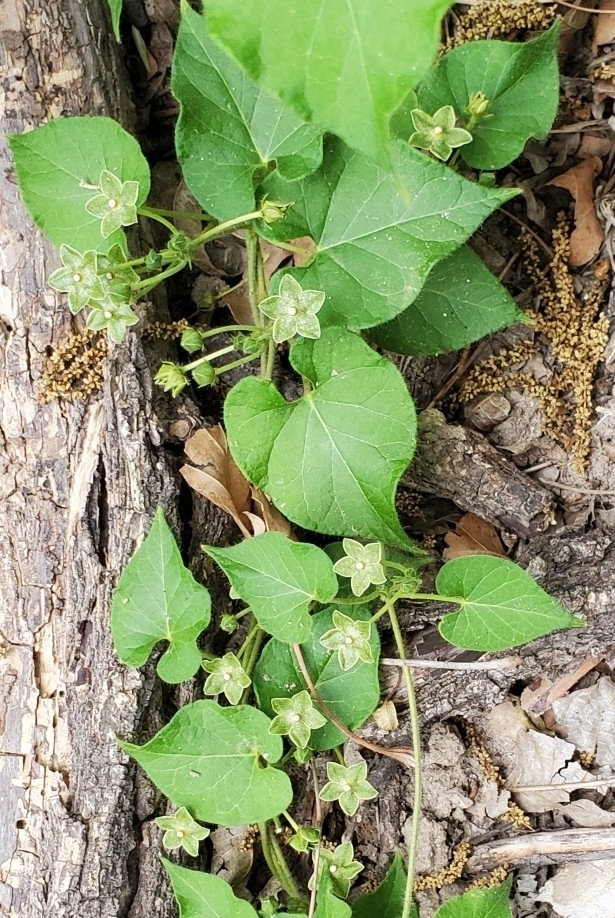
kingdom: Plantae
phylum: Tracheophyta
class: Magnoliopsida
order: Gentianales
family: Apocynaceae
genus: Dictyanthus
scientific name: Dictyanthus reticulatus
